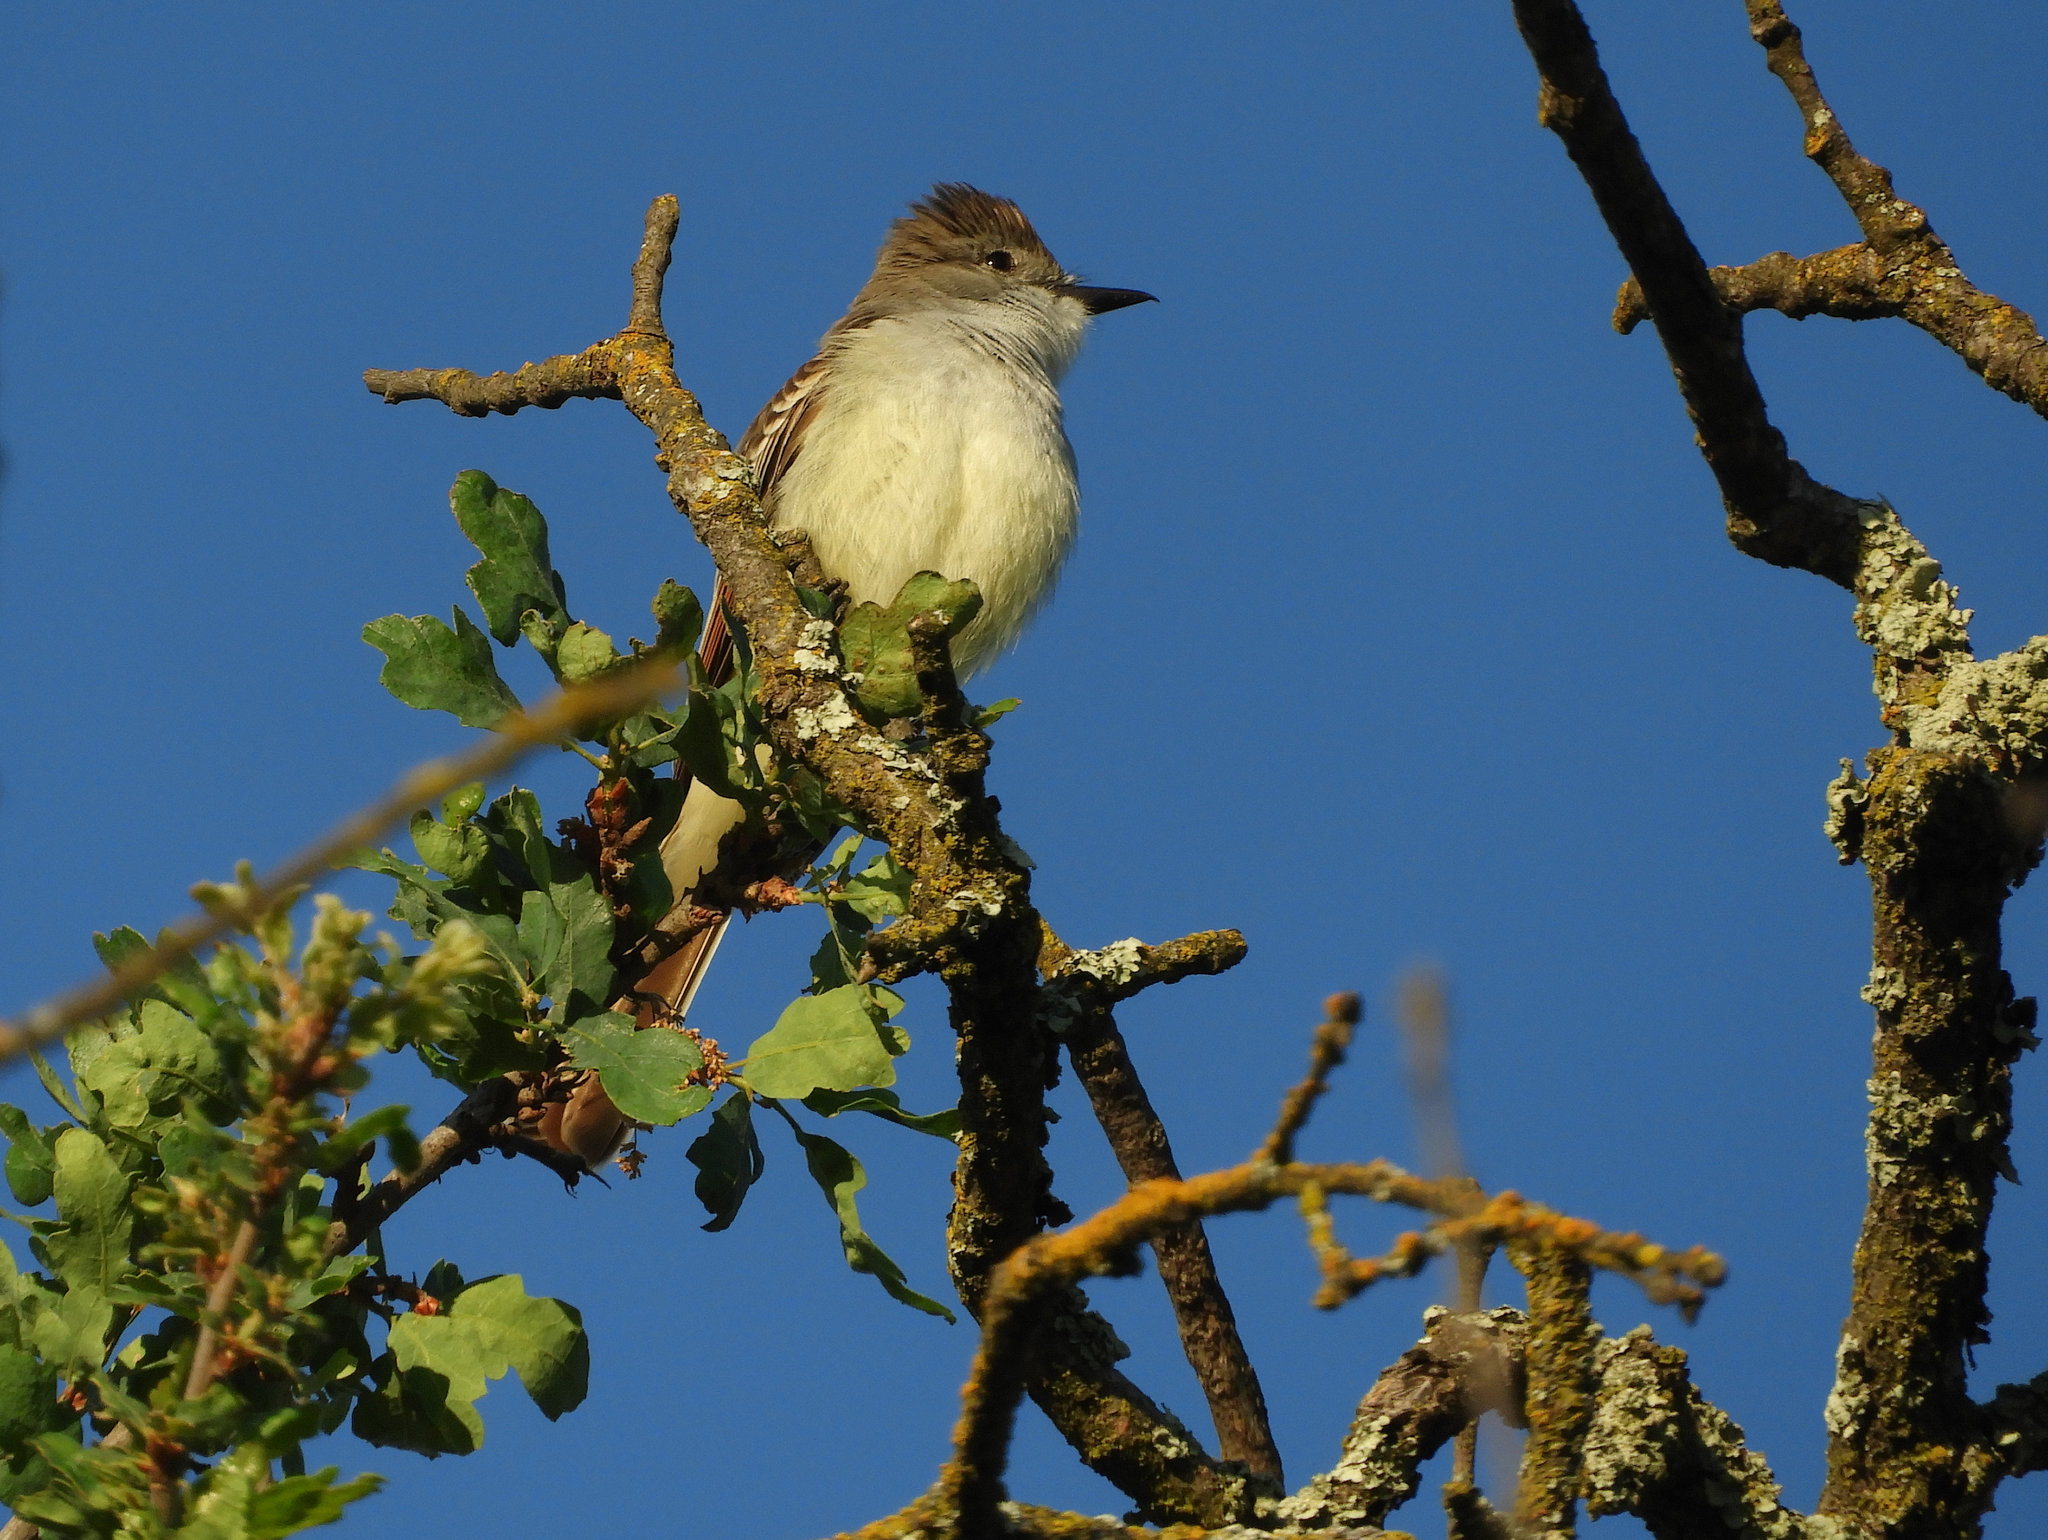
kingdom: Animalia
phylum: Chordata
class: Aves
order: Passeriformes
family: Tyrannidae
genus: Myiarchus
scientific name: Myiarchus cinerascens
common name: Ash-throated flycatcher
